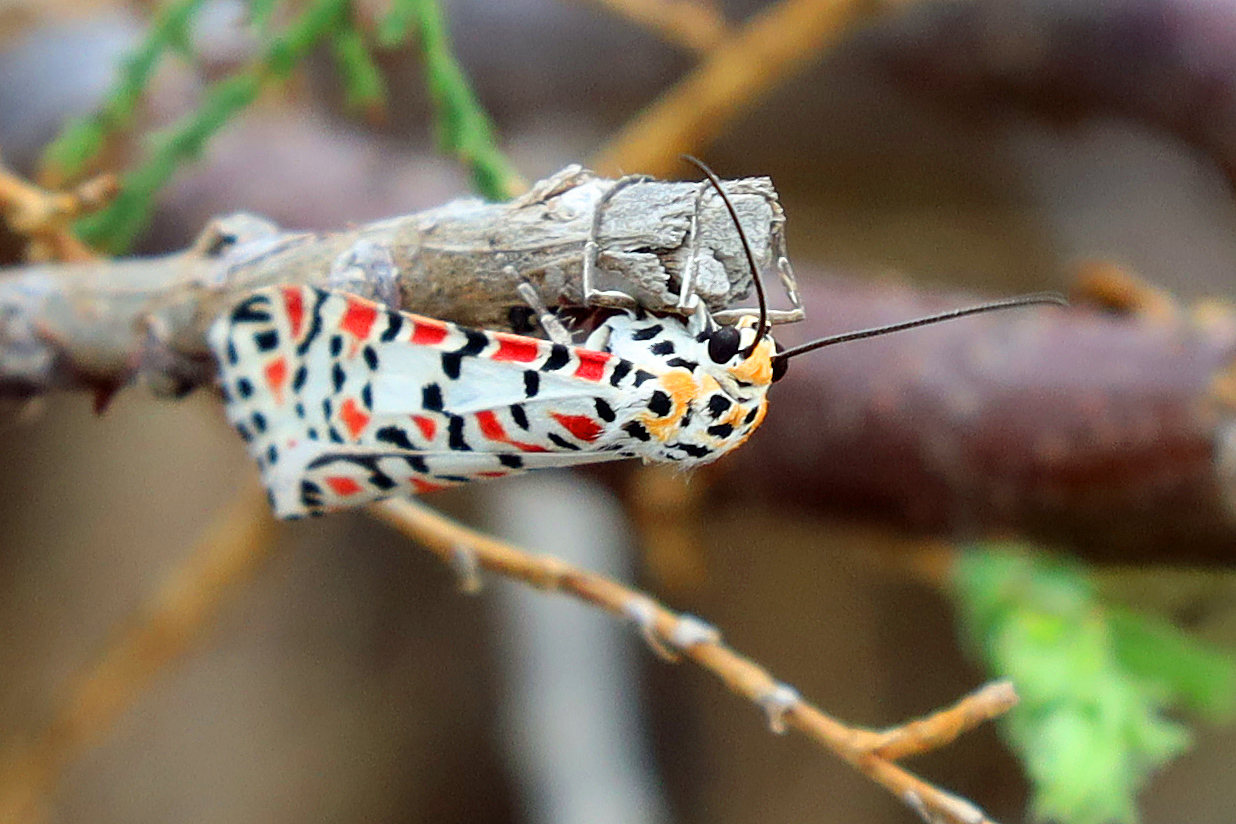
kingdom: Animalia
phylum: Arthropoda
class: Insecta
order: Lepidoptera
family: Erebidae
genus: Utetheisa
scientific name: Utetheisa pulchella
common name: Crimson speckled
